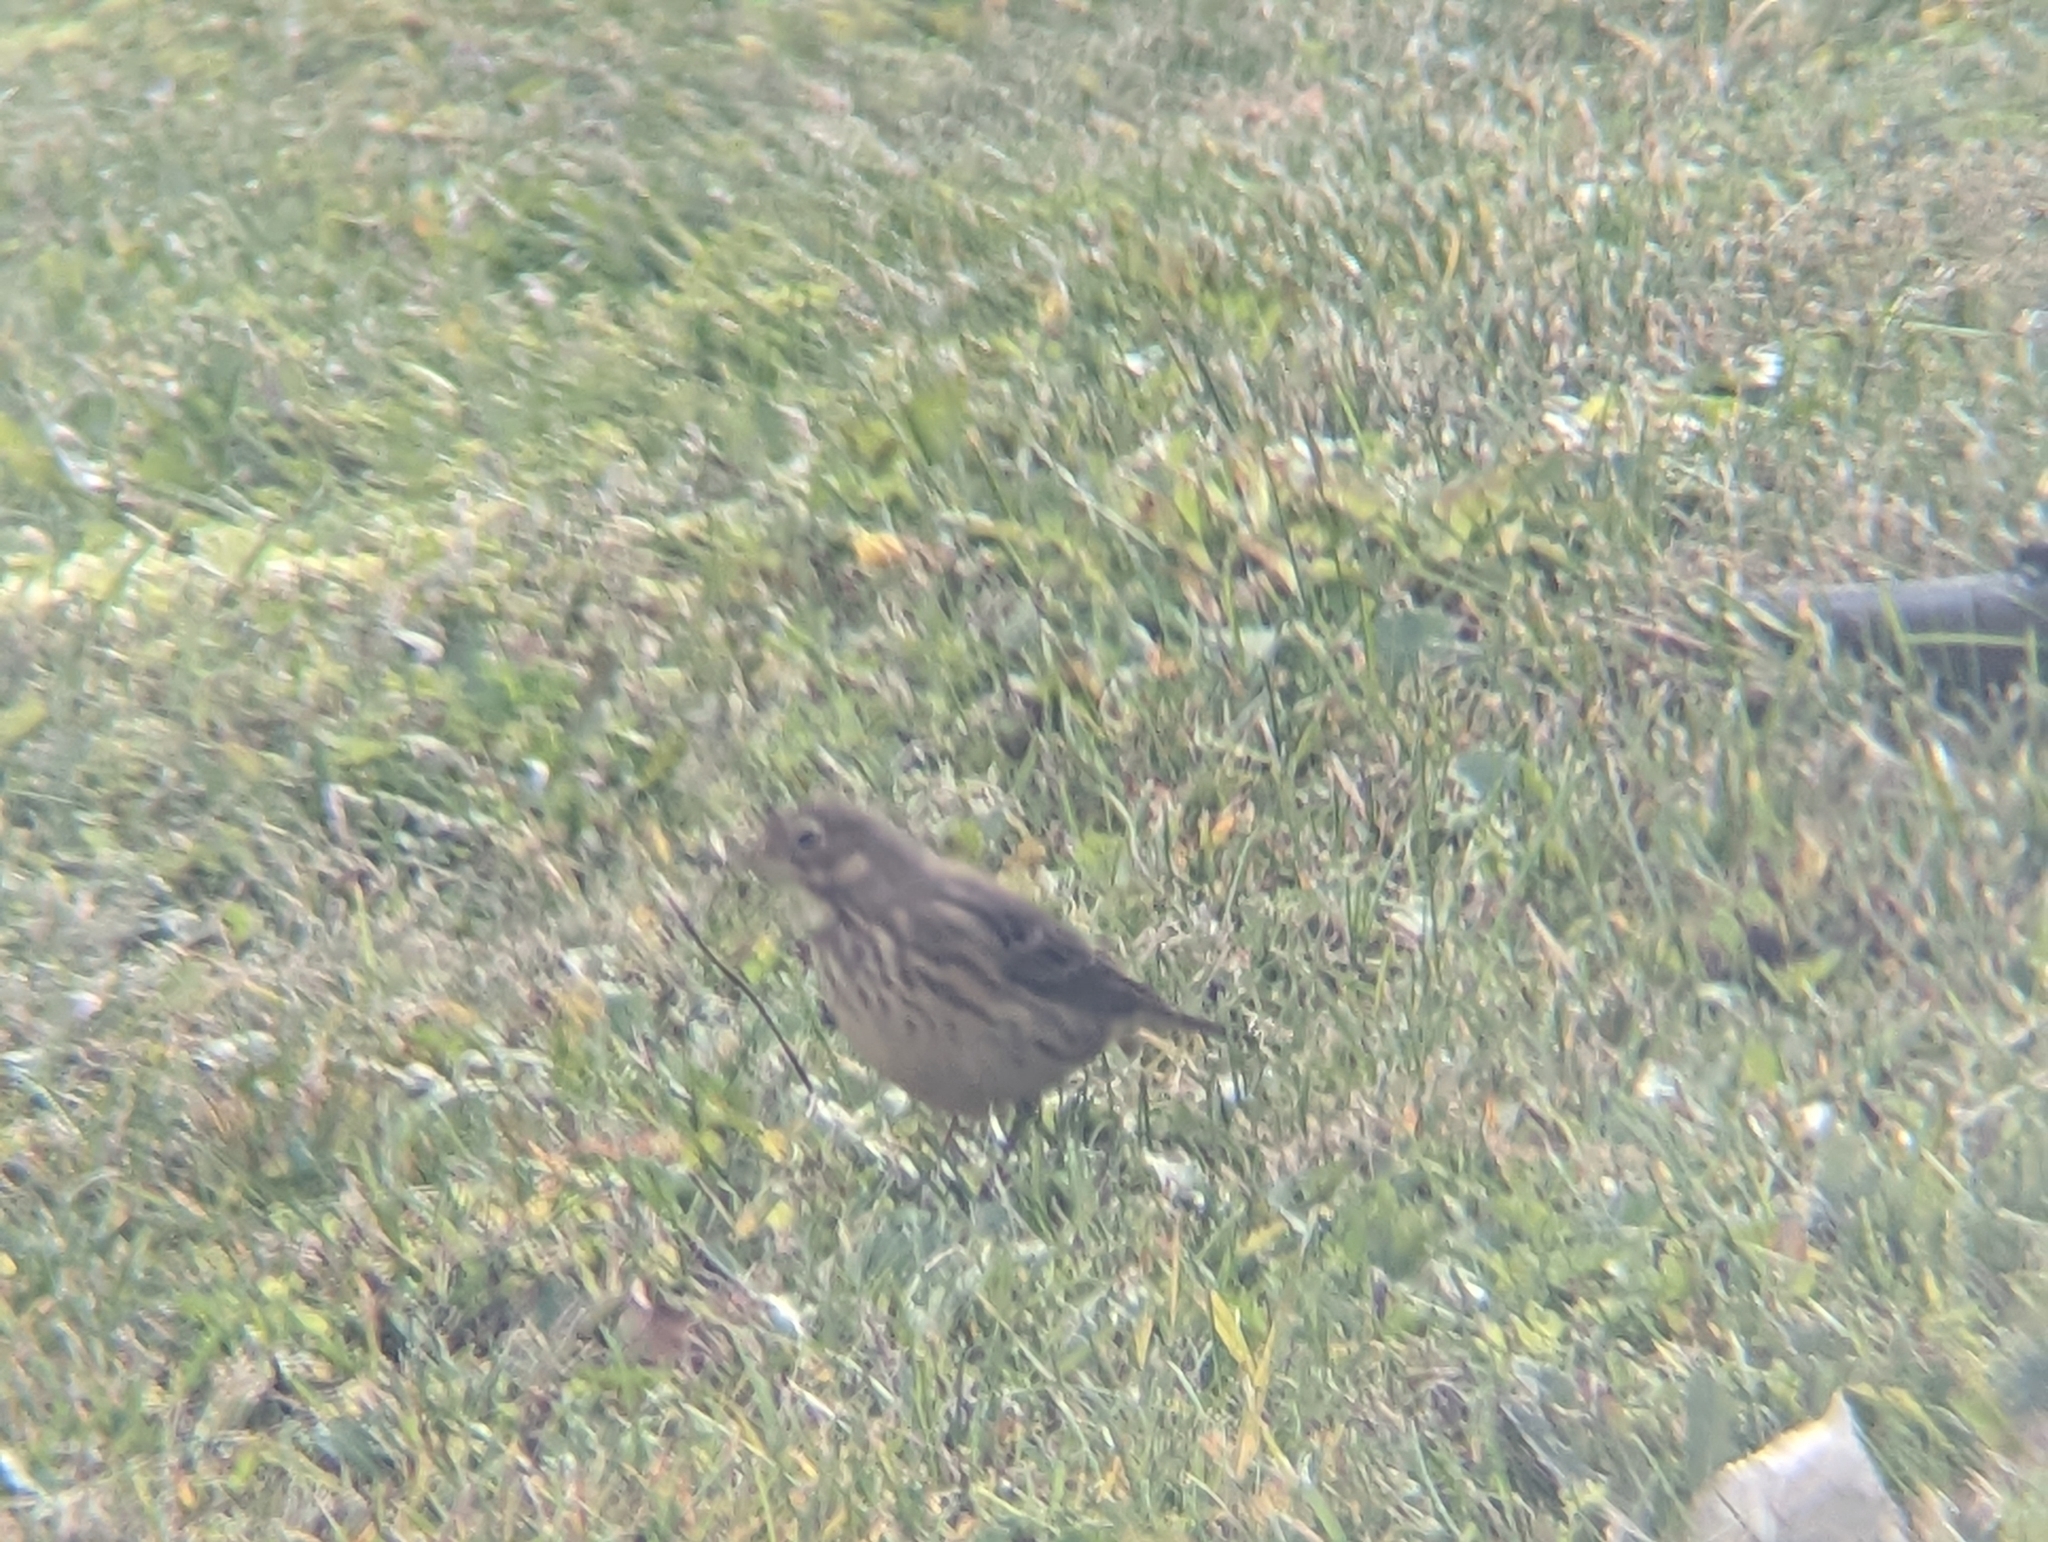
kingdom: Animalia
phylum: Chordata
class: Aves
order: Passeriformes
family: Motacillidae
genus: Anthus
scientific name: Anthus rubescens
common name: Buff-bellied pipit
